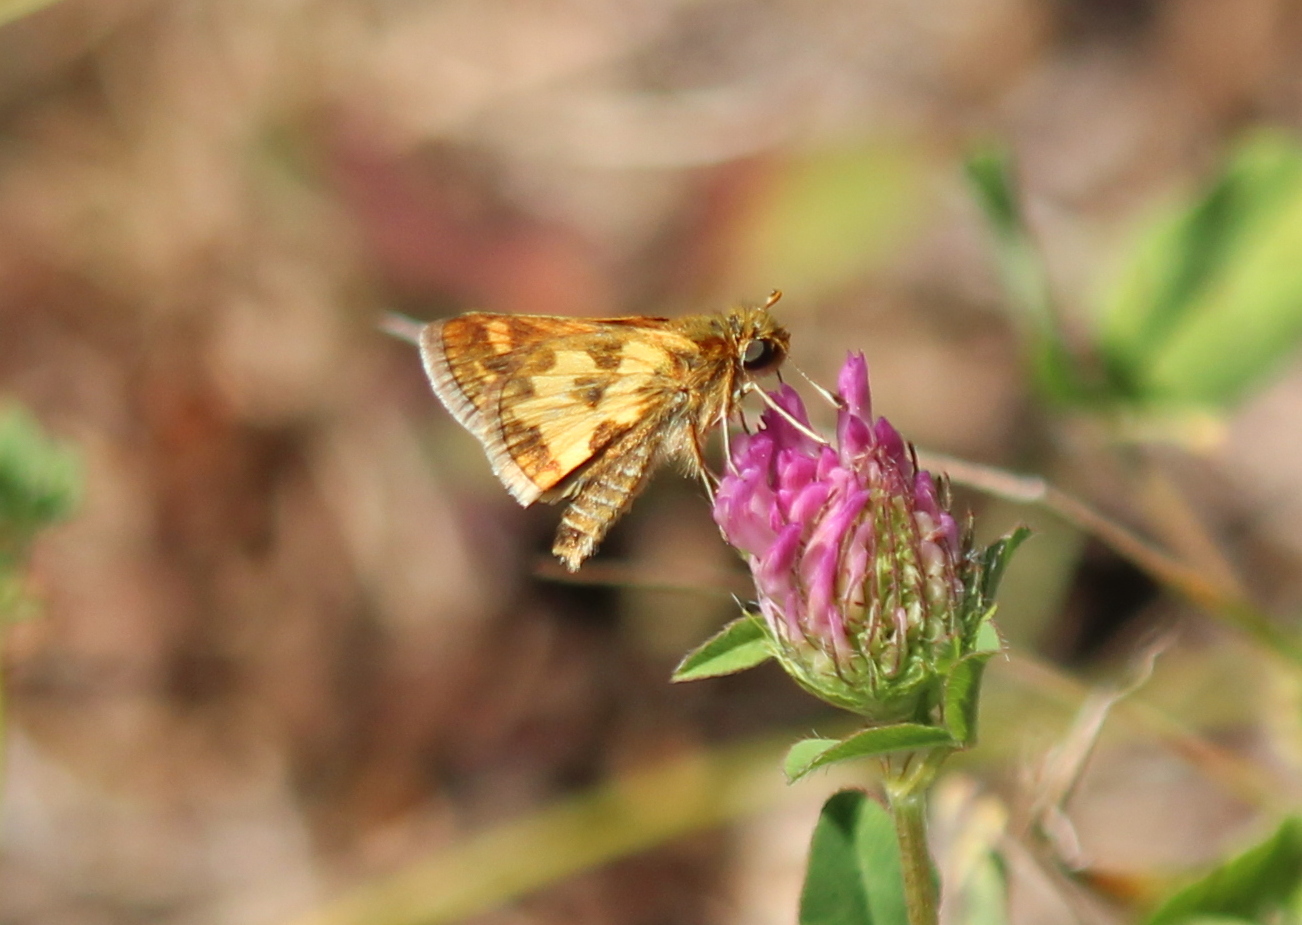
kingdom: Animalia
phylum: Arthropoda
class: Insecta
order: Lepidoptera
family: Hesperiidae
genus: Polites
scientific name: Polites coras
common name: Peck's skipper
